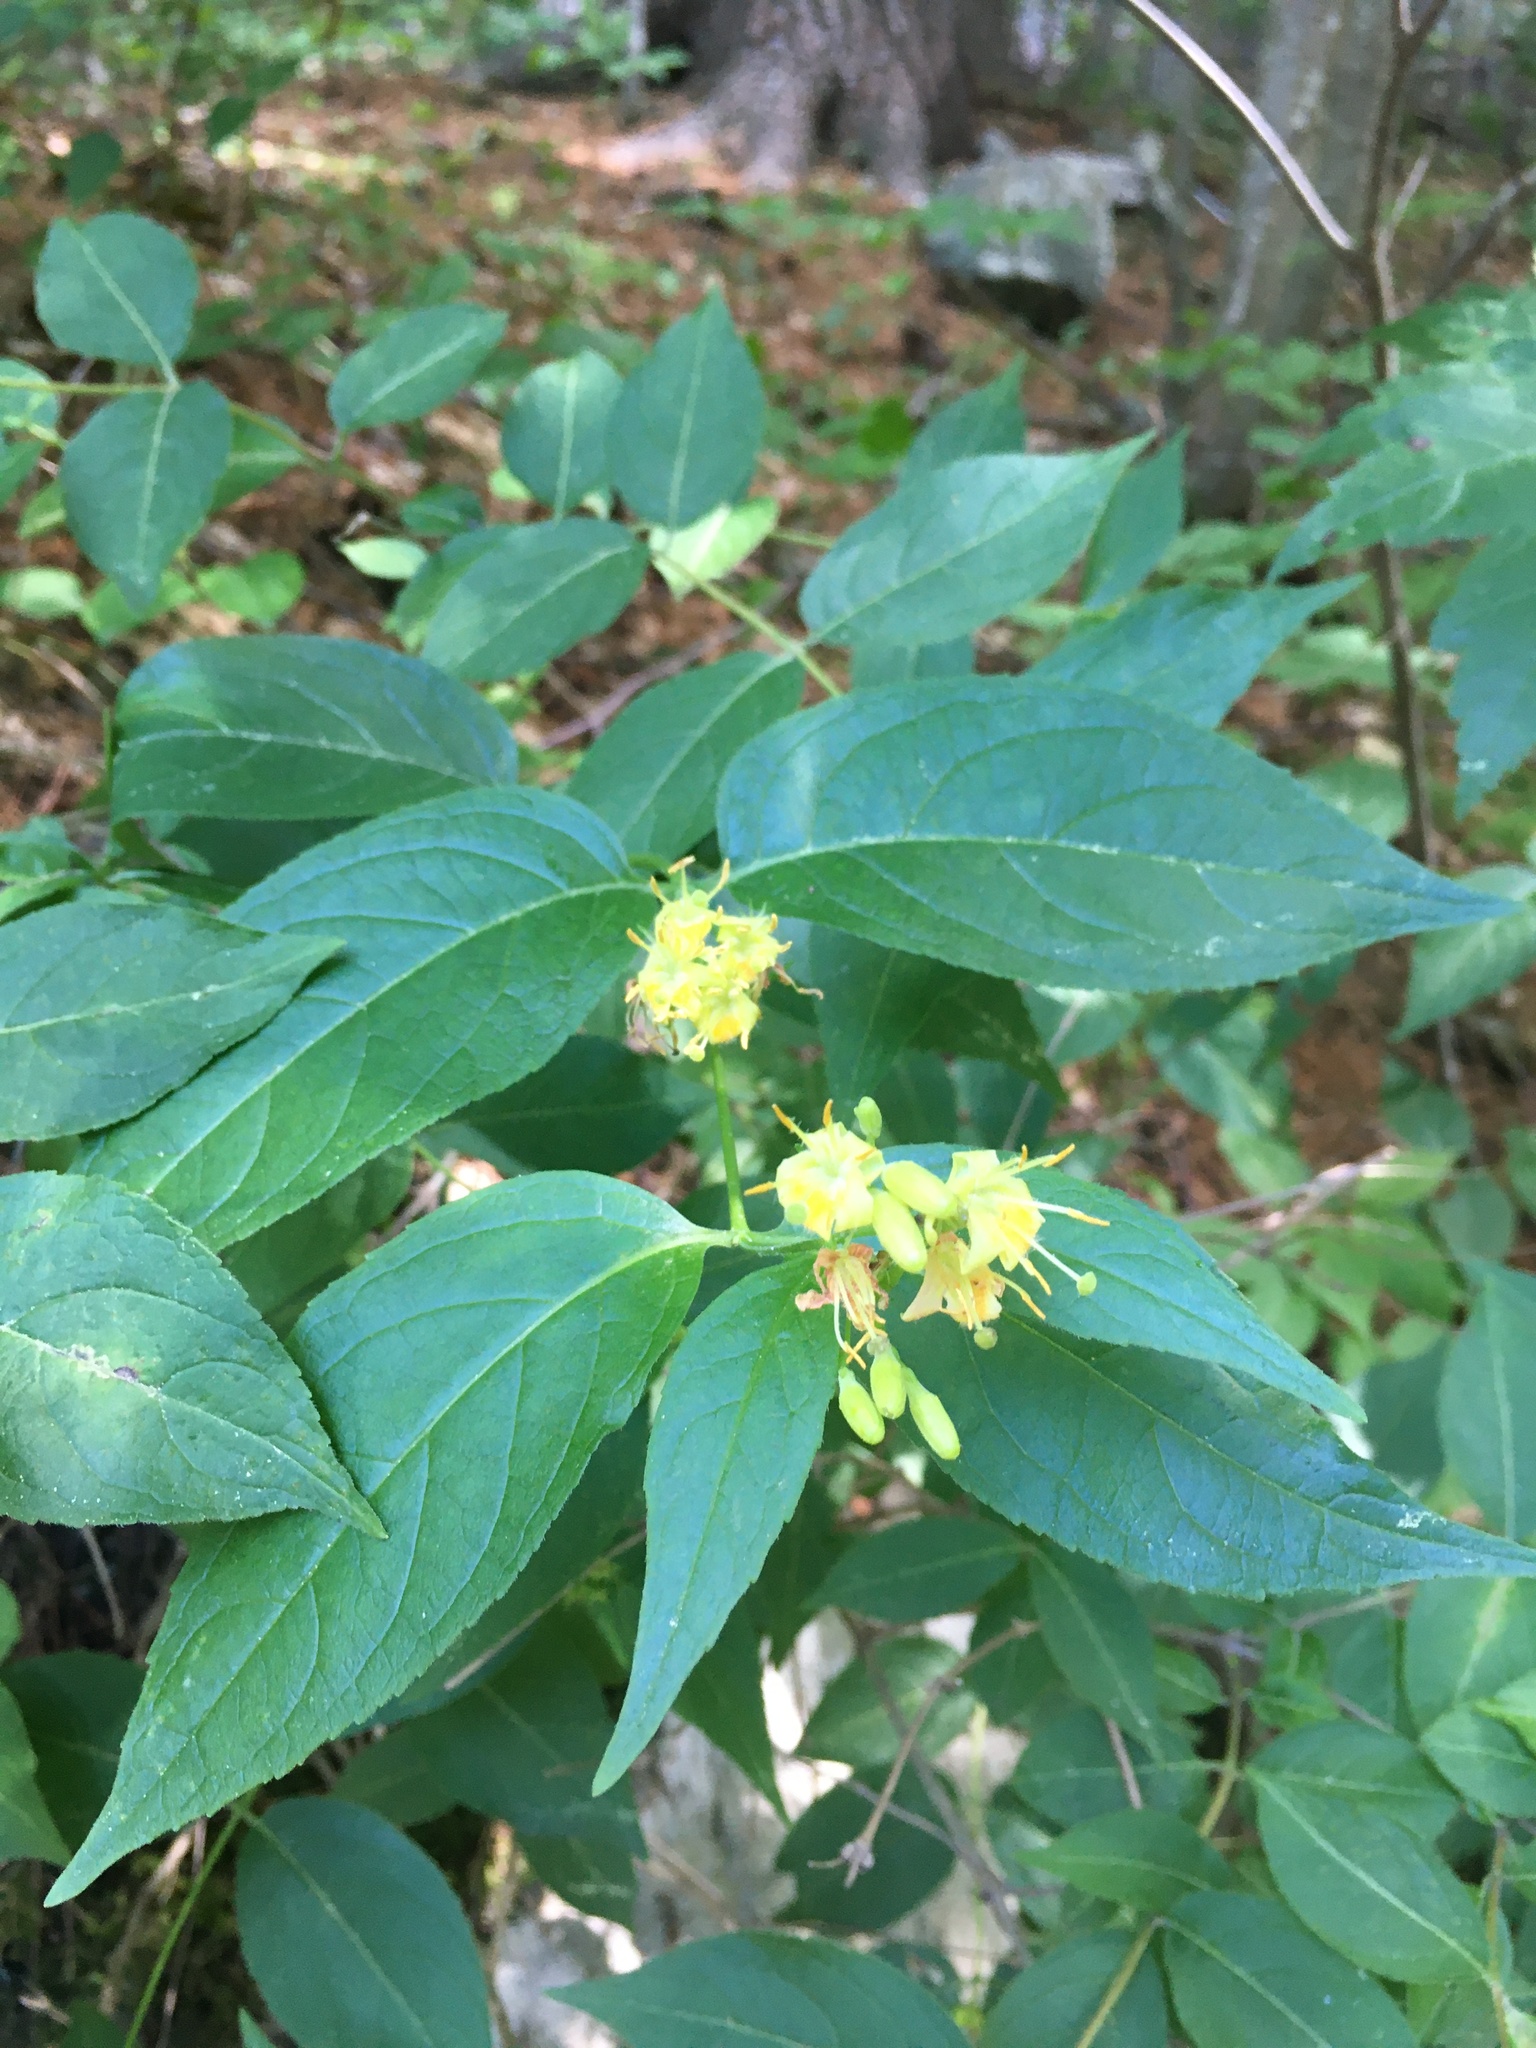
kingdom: Plantae
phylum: Tracheophyta
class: Magnoliopsida
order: Dipsacales
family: Caprifoliaceae
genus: Diervilla
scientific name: Diervilla lonicera
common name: Bush-honeysuckle
